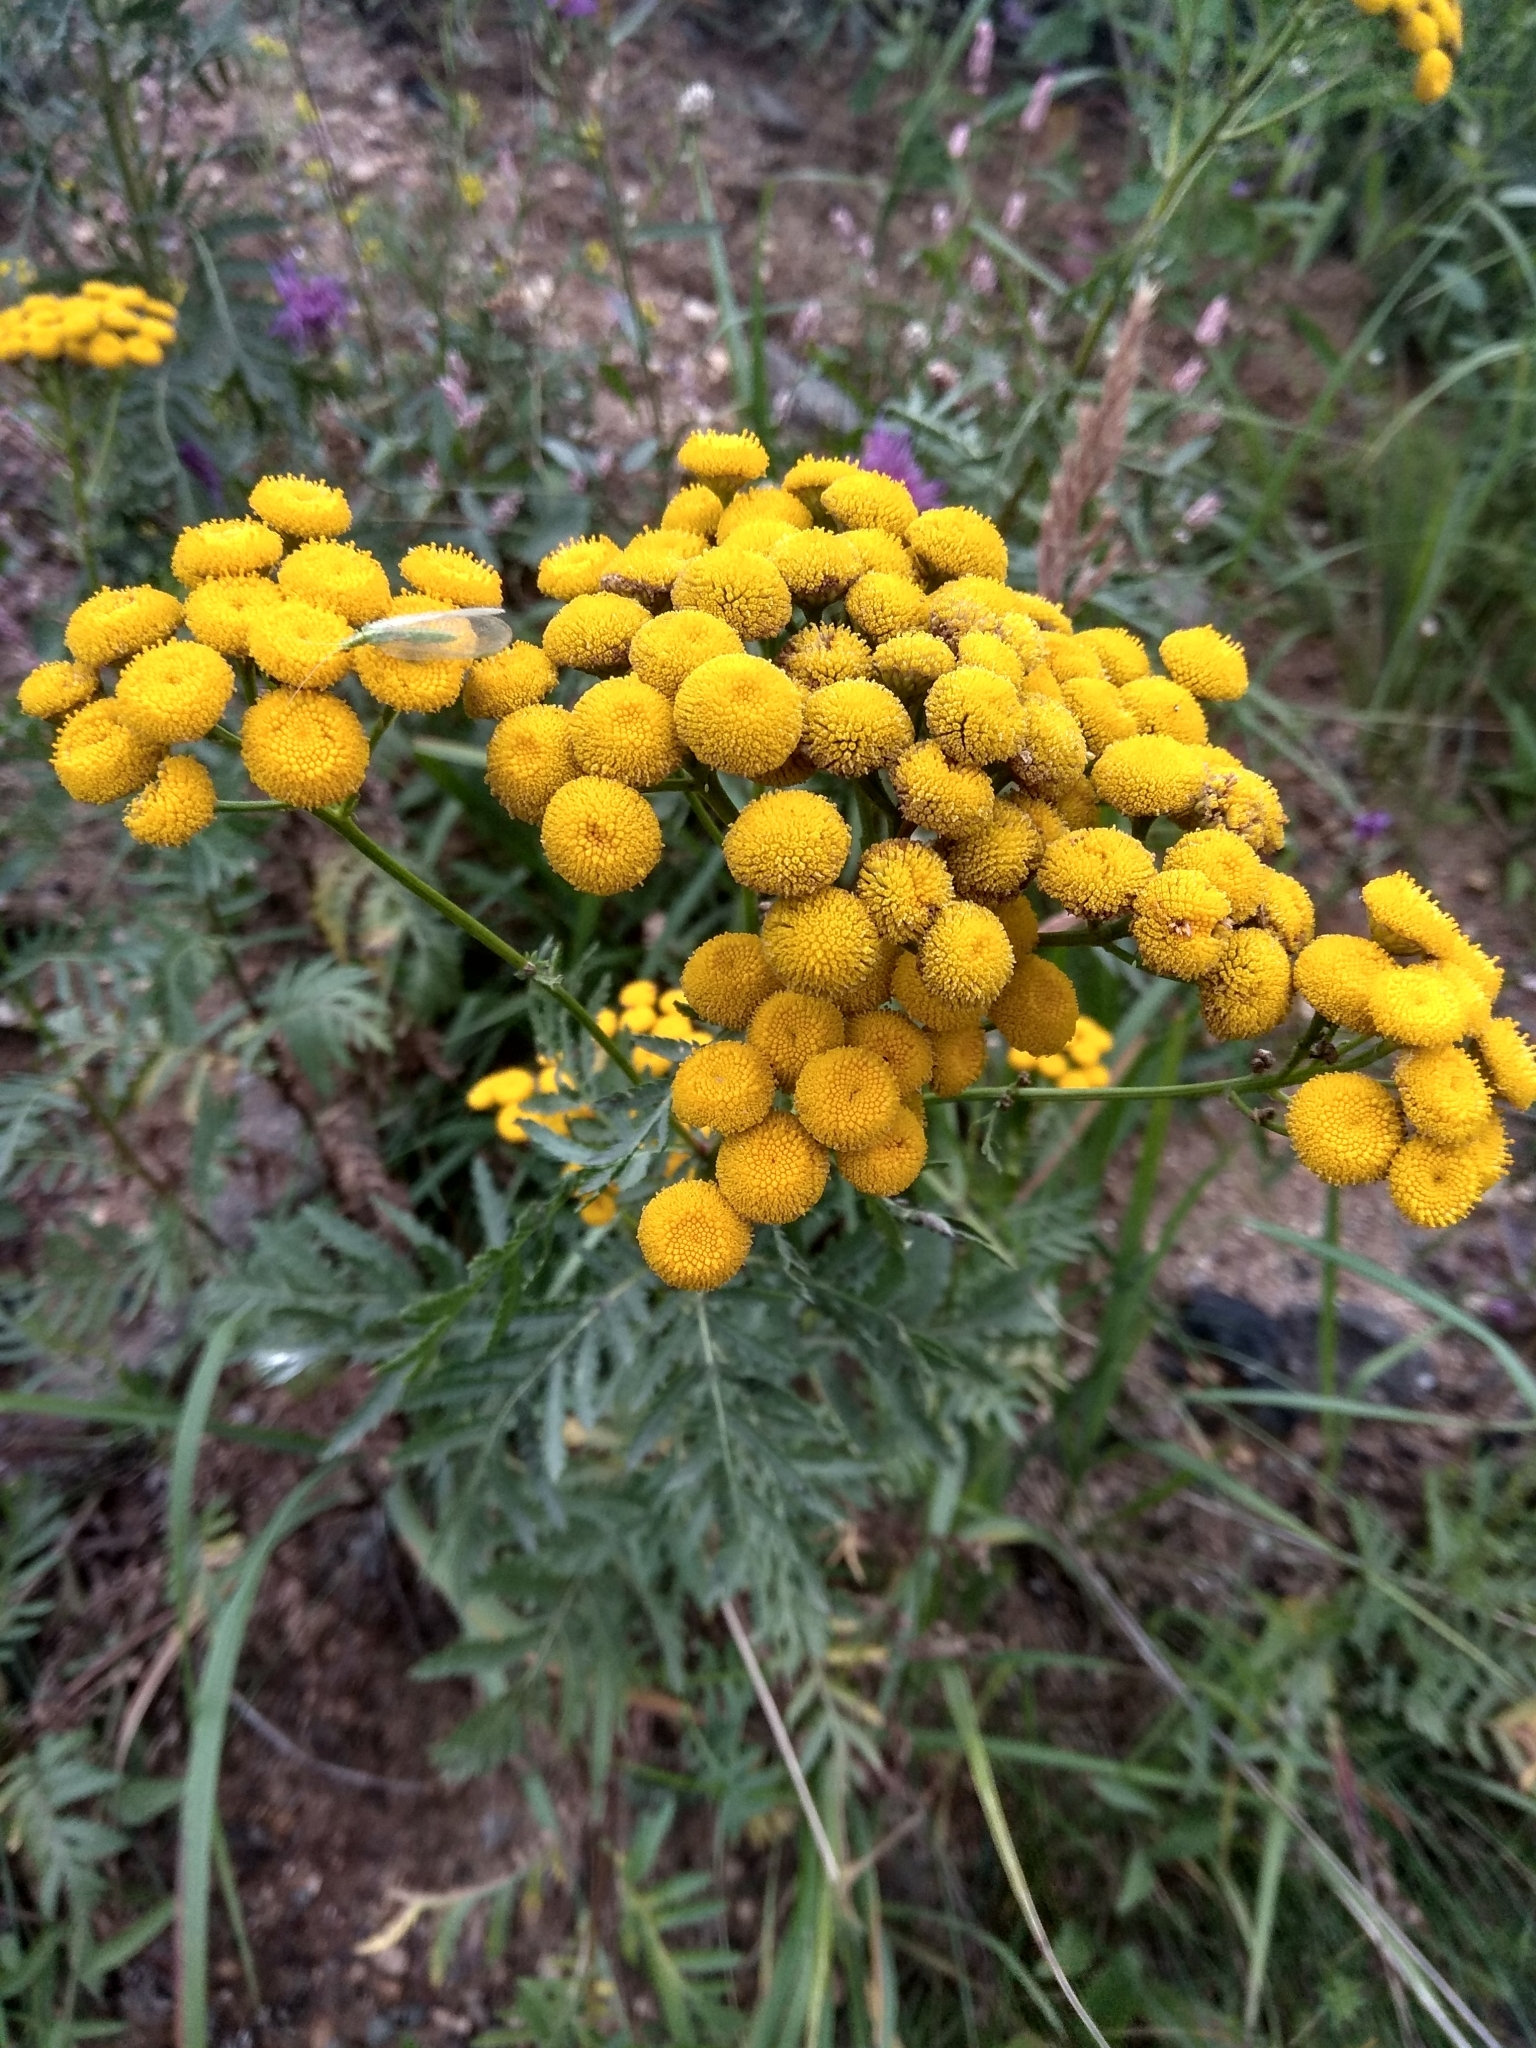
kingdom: Plantae
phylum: Tracheophyta
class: Magnoliopsida
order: Asterales
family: Asteraceae
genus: Tanacetum
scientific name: Tanacetum vulgare
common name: Common tansy
